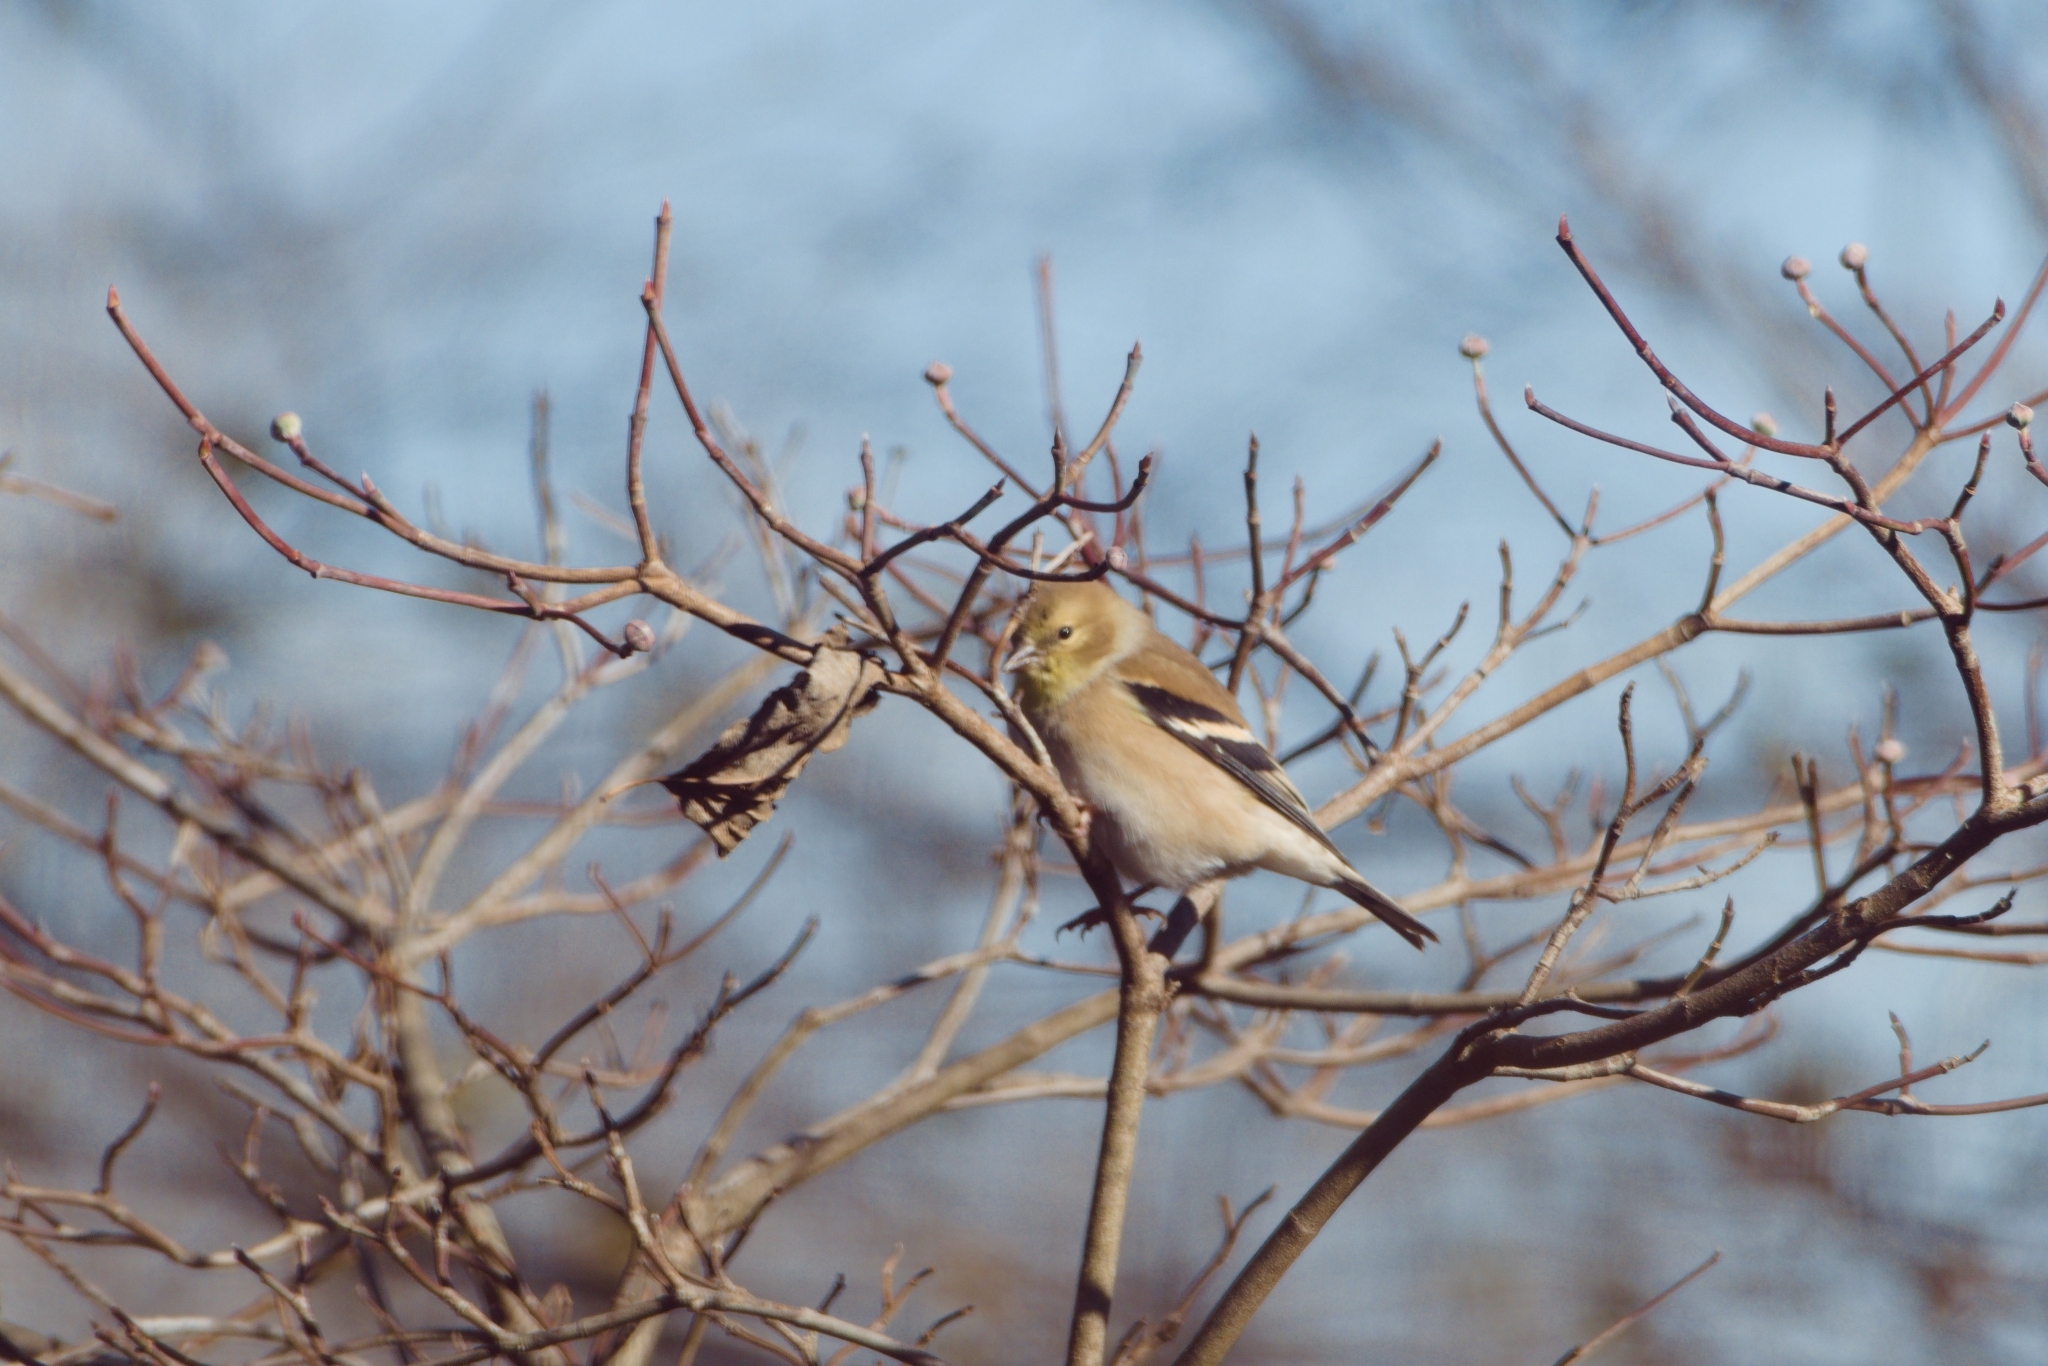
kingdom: Animalia
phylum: Chordata
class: Aves
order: Passeriformes
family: Fringillidae
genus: Spinus
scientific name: Spinus tristis
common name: American goldfinch
